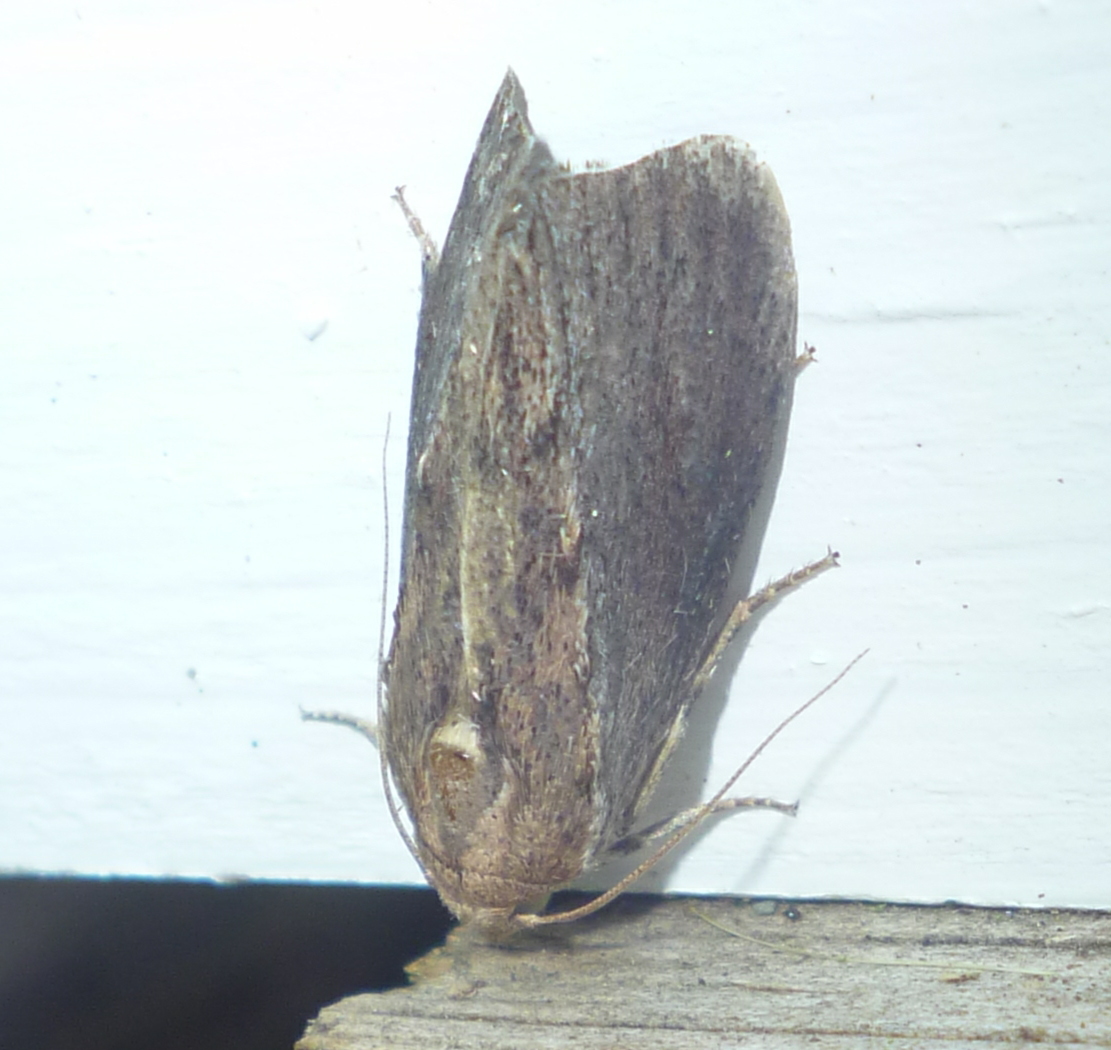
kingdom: Animalia
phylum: Arthropoda
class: Insecta
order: Lepidoptera
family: Pyralidae
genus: Galleria
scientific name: Galleria mellonella
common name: Greater wax moth
